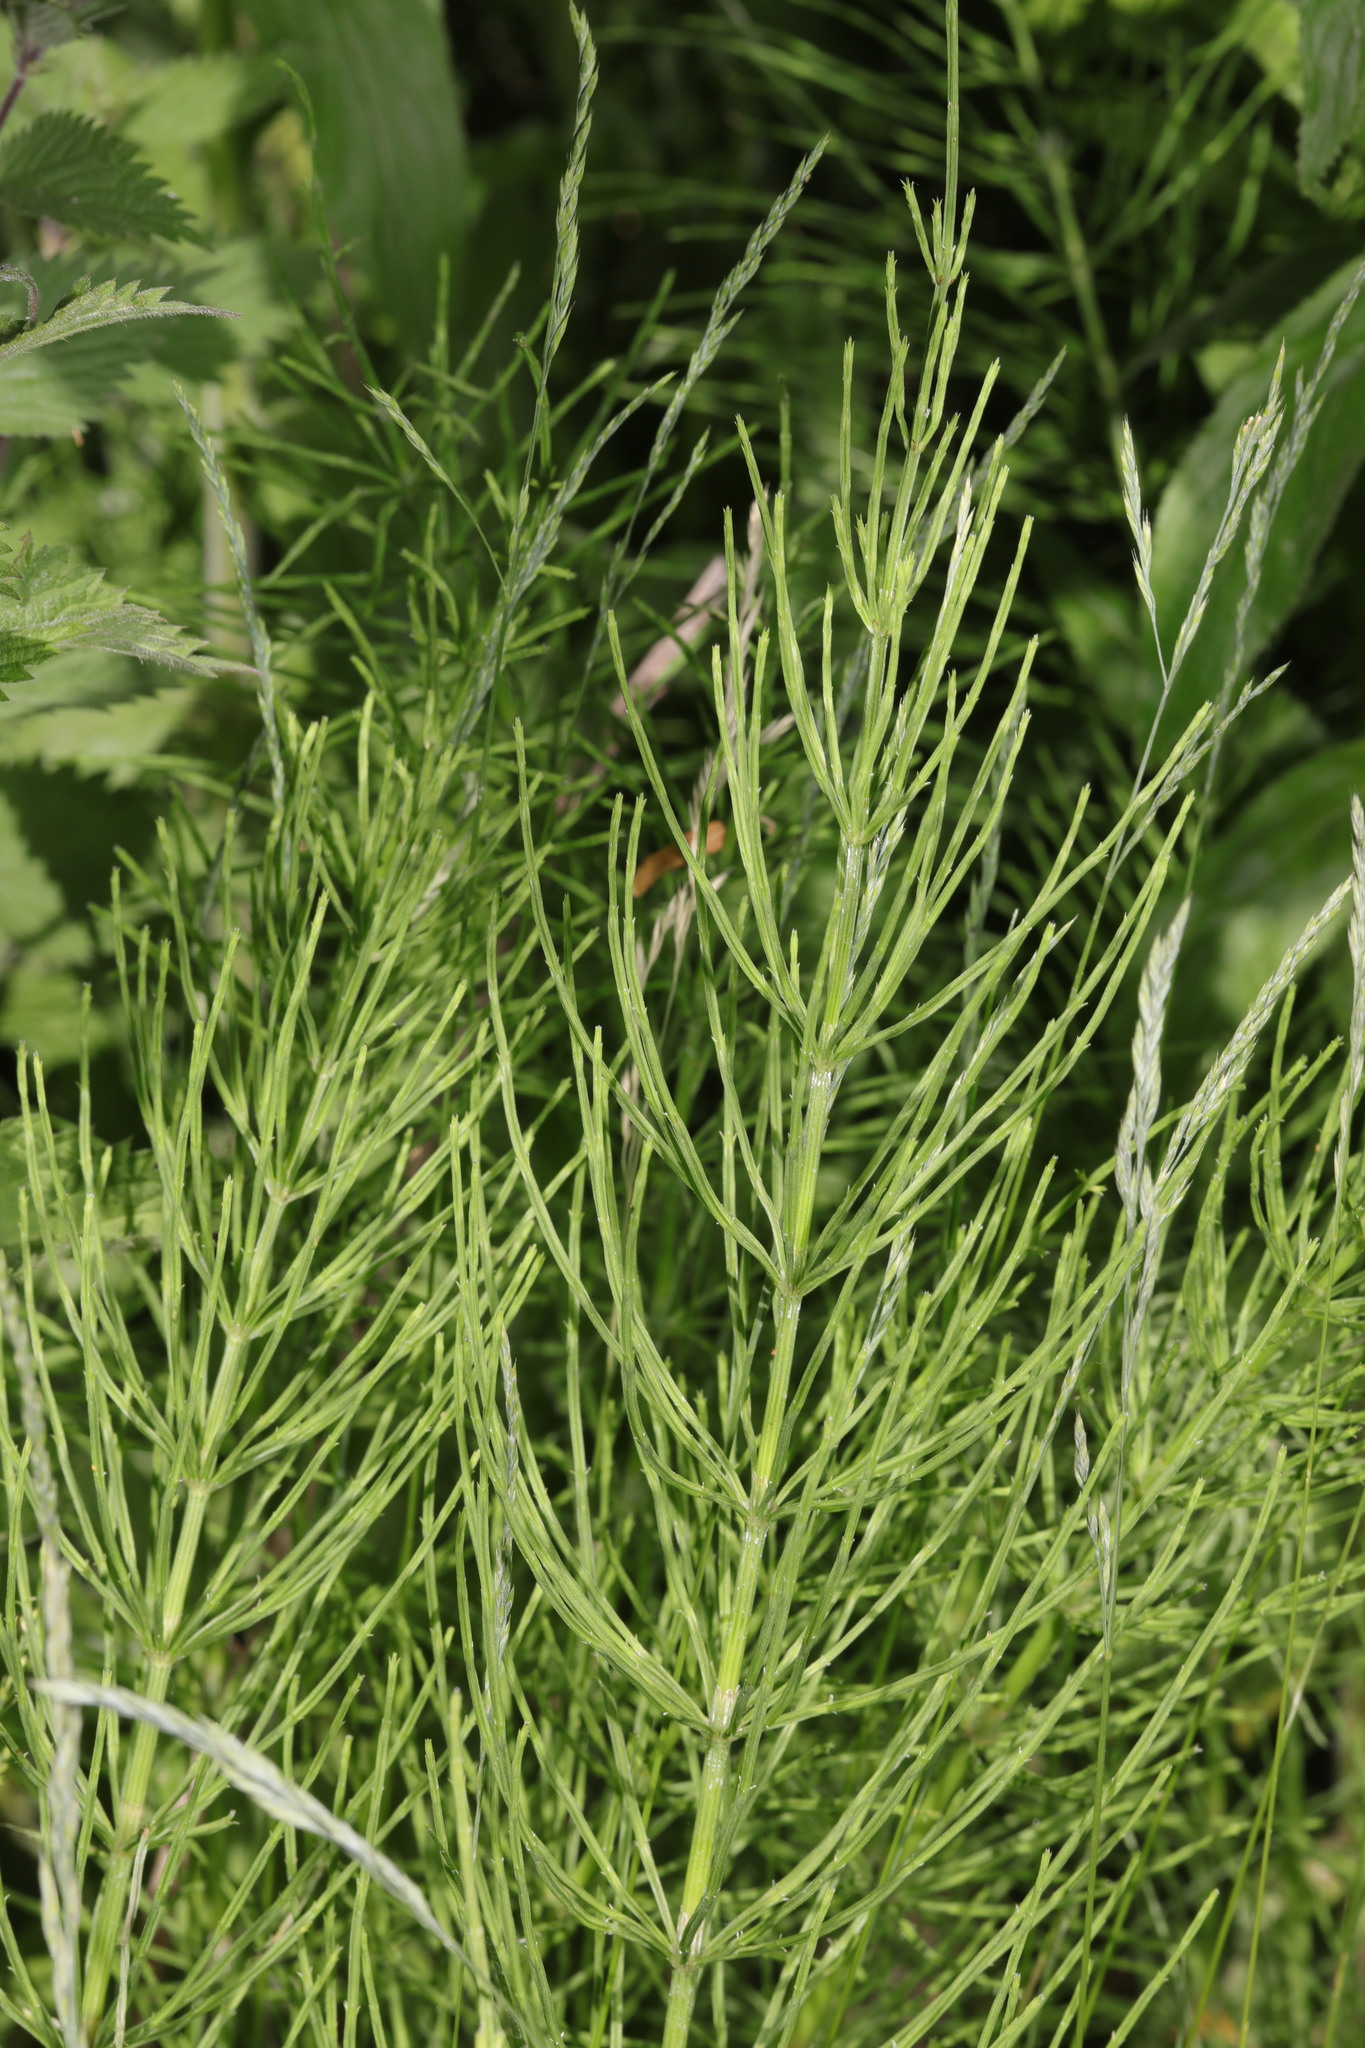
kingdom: Plantae
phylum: Tracheophyta
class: Polypodiopsida
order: Equisetales
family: Equisetaceae
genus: Equisetum
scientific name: Equisetum arvense
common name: Field horsetail
